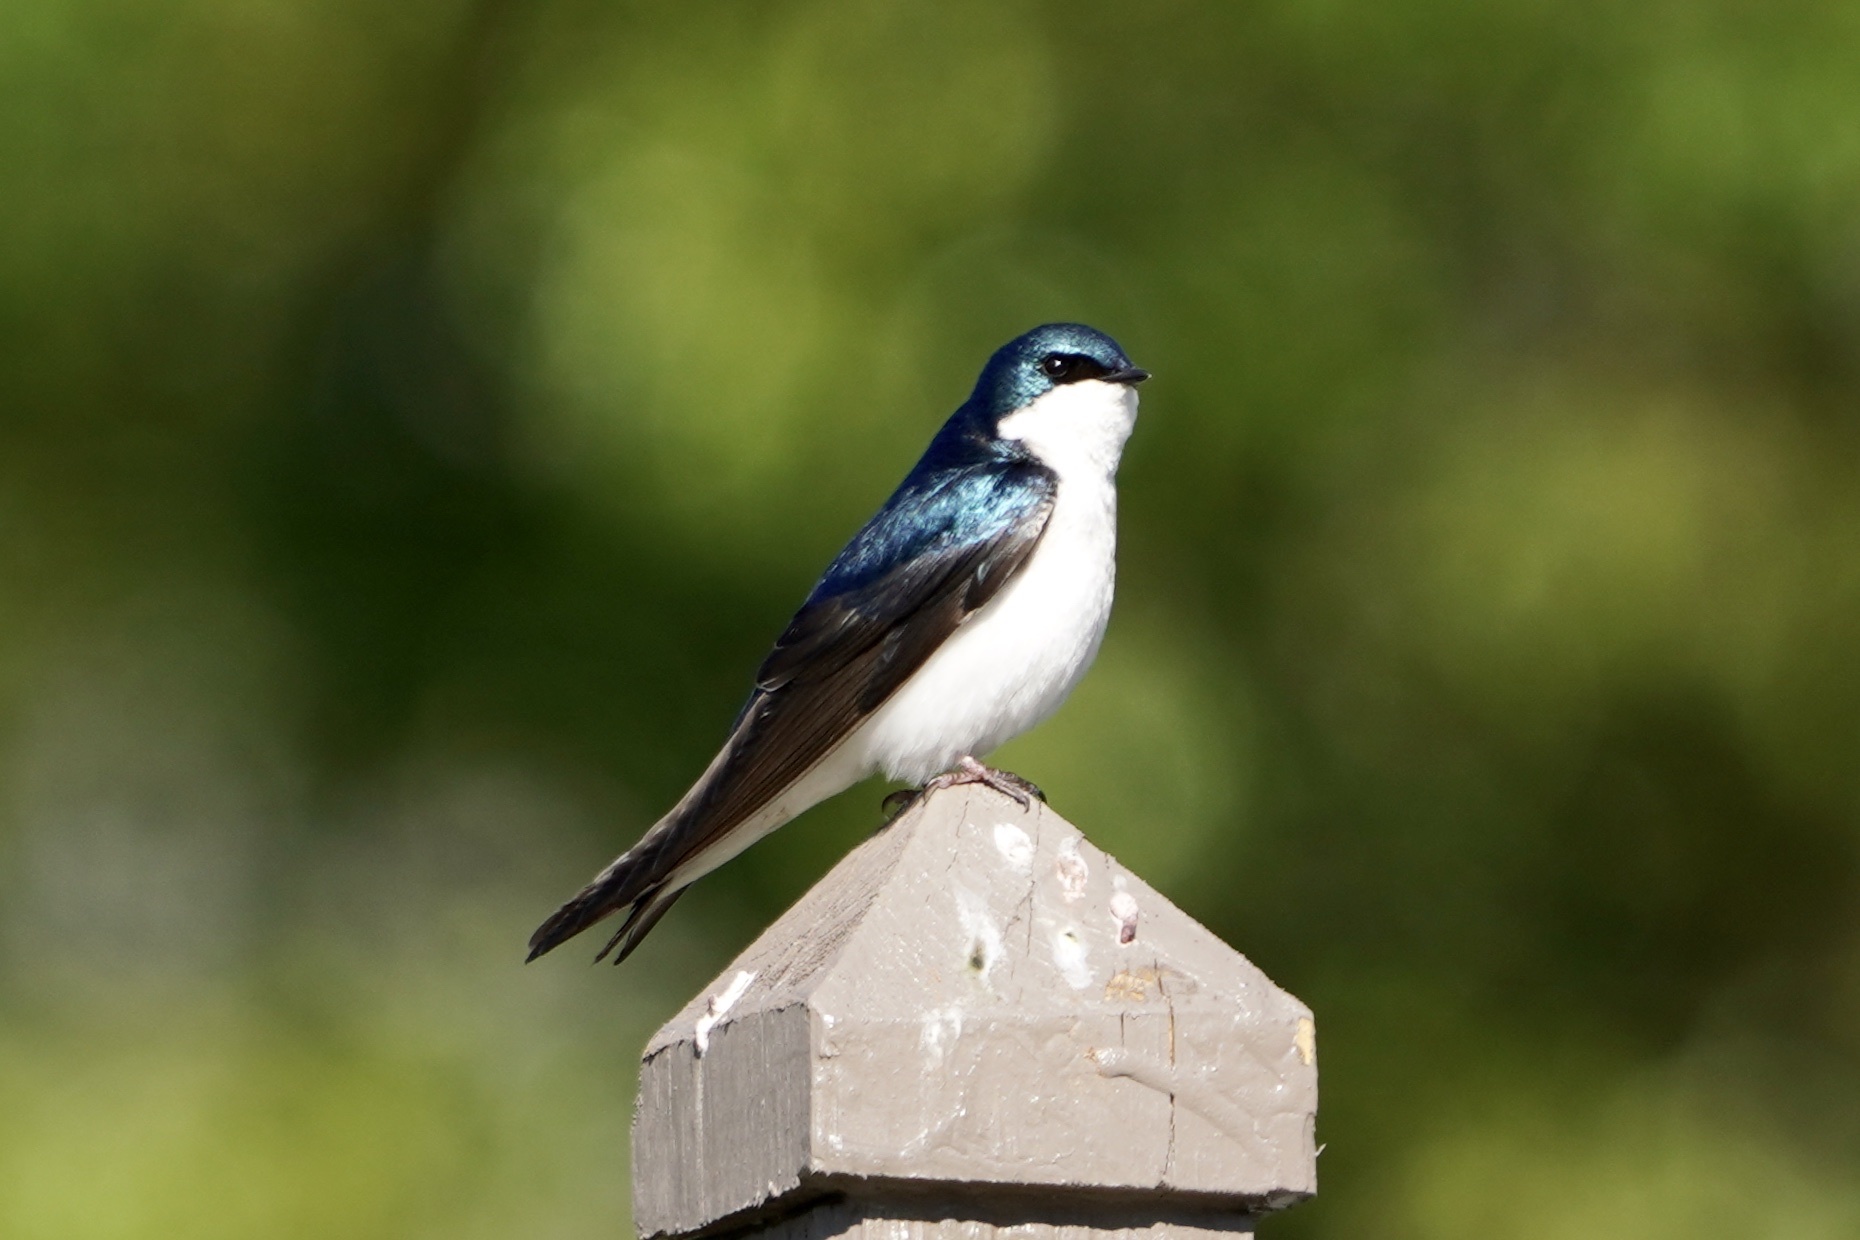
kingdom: Animalia
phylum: Chordata
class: Aves
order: Passeriformes
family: Hirundinidae
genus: Tachycineta
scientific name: Tachycineta bicolor
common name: Tree swallow
